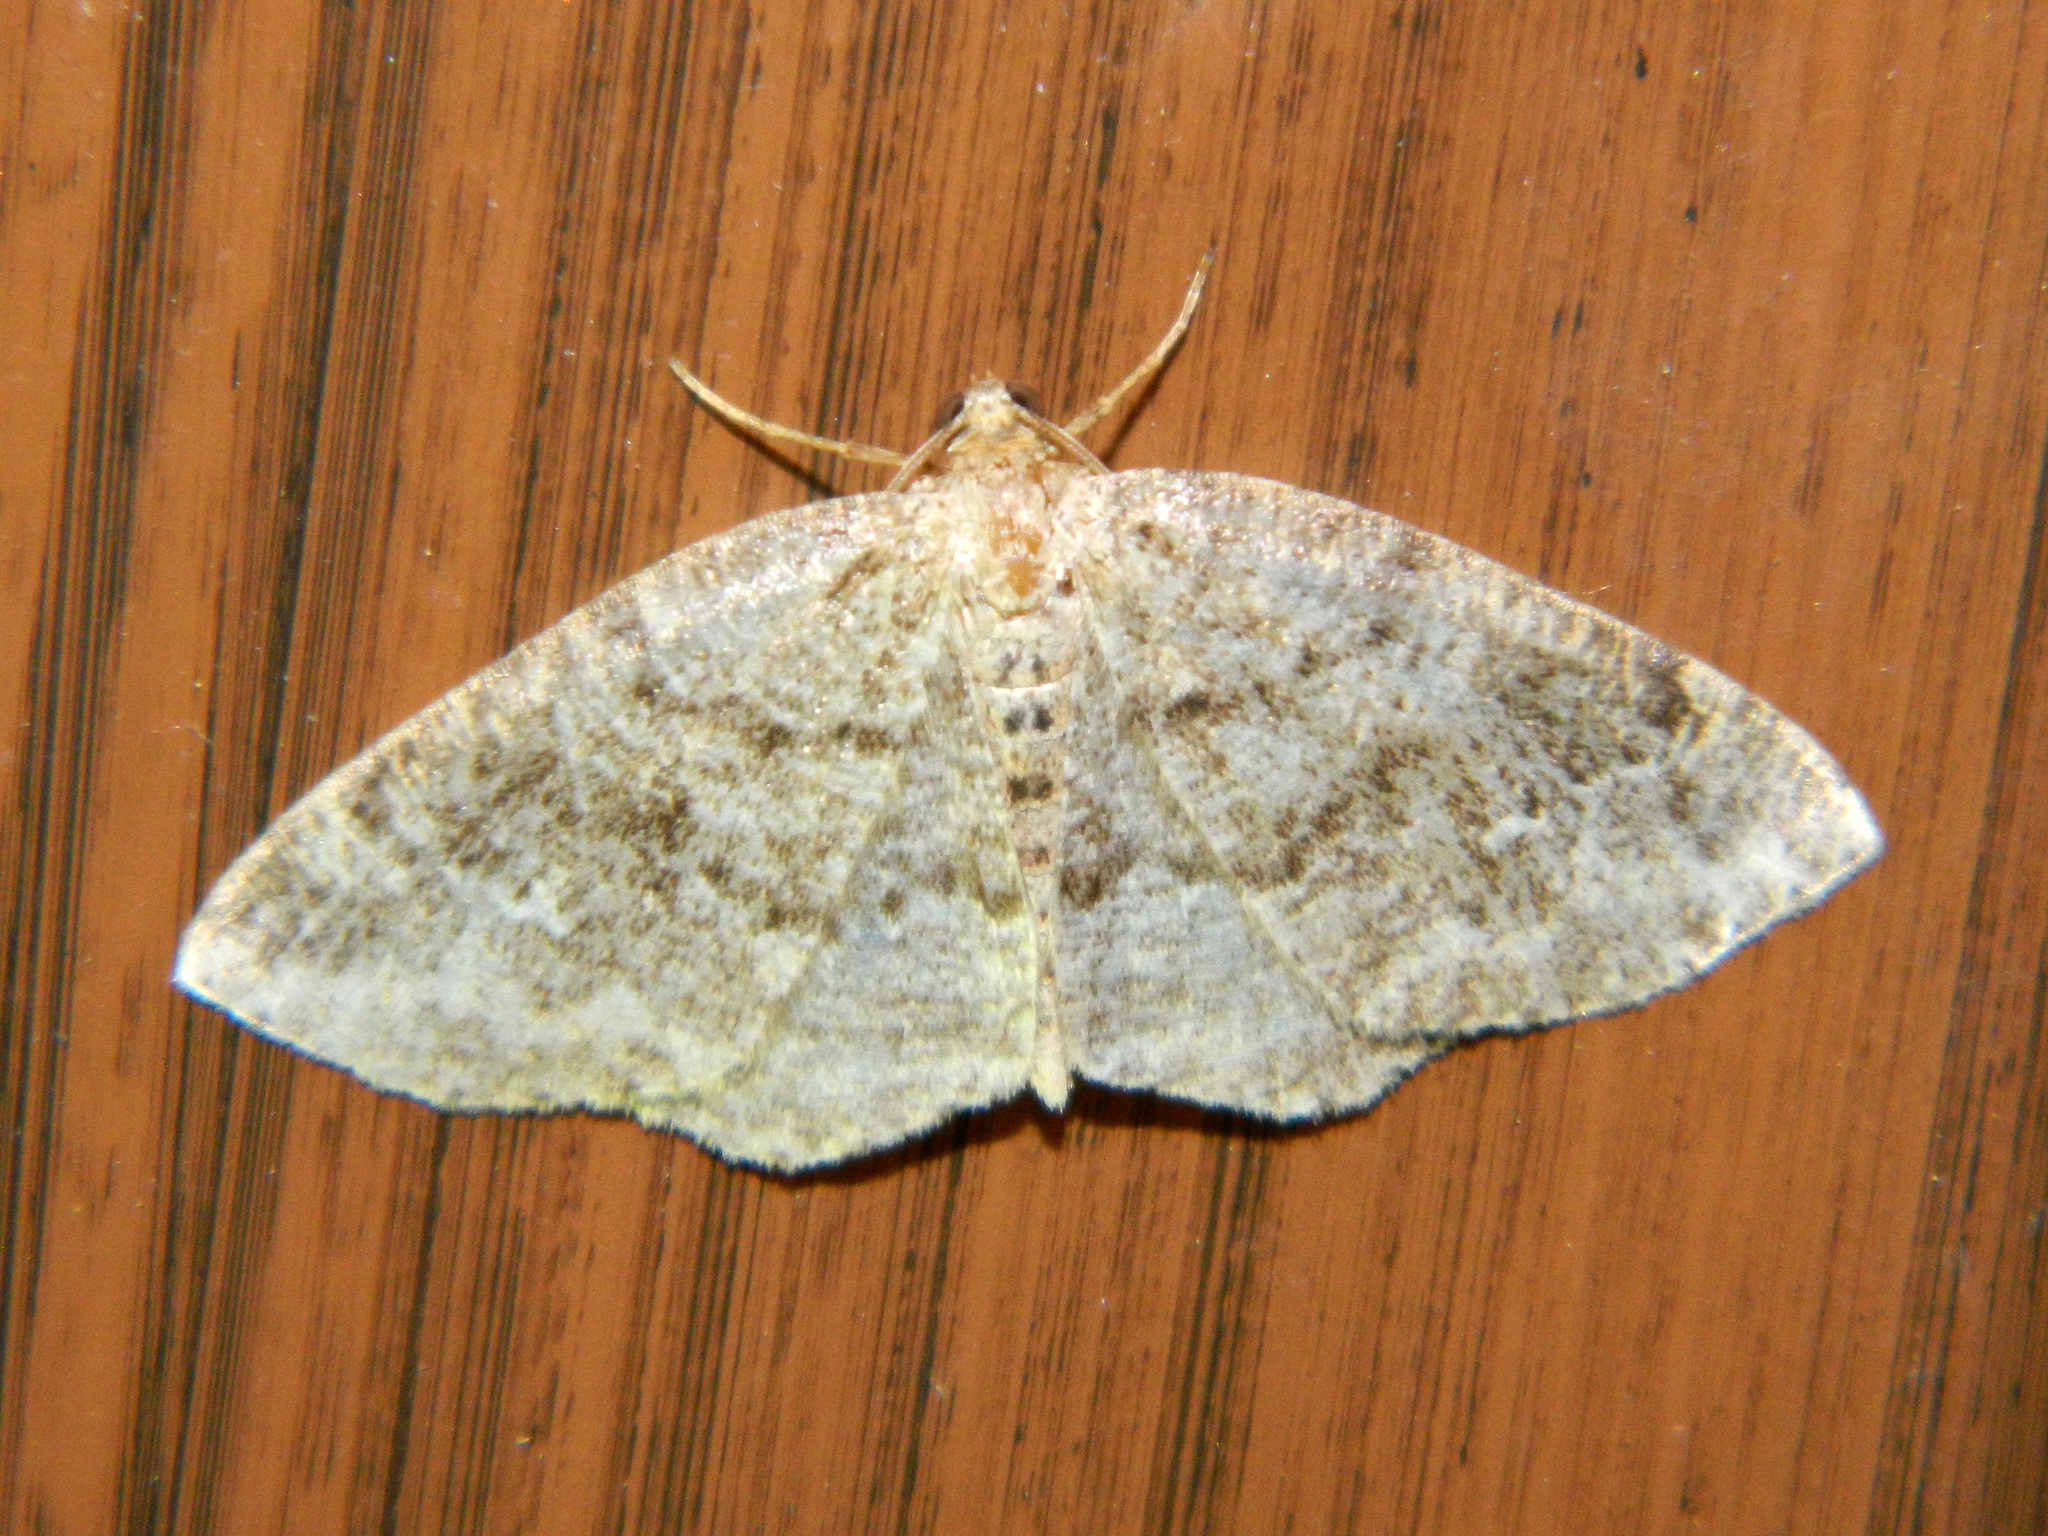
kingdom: Animalia
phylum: Arthropoda
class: Insecta
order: Lepidoptera
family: Geometridae
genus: Homochlodes
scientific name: Homochlodes fritillaria
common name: Pale homochlodes
